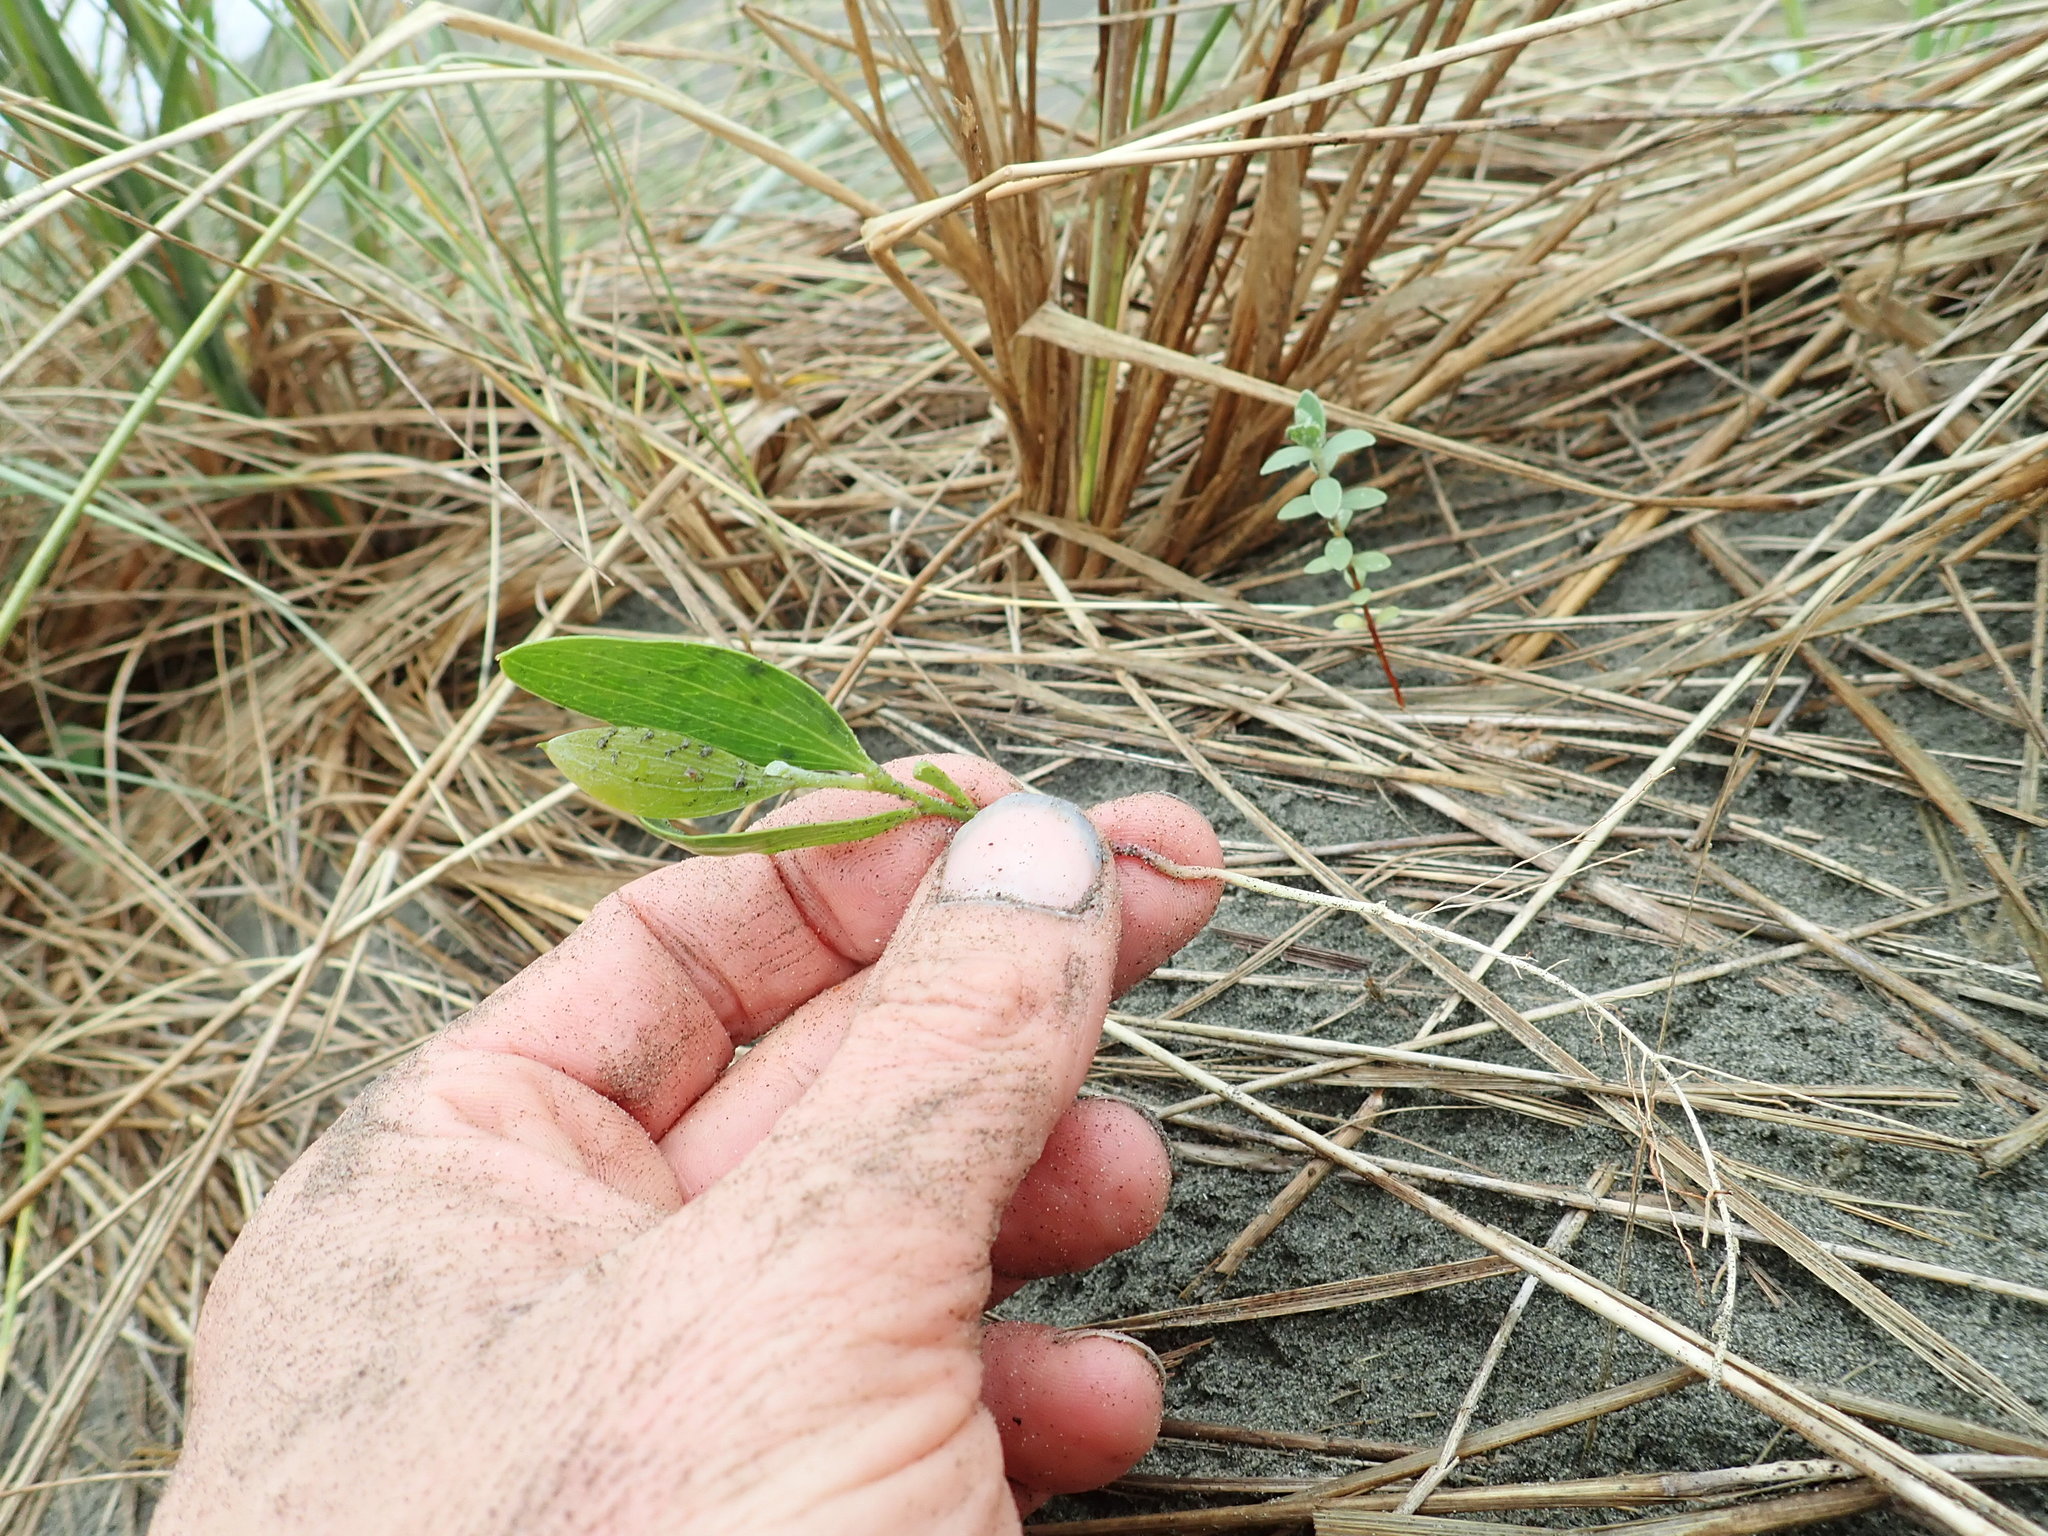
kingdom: Plantae
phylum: Tracheophyta
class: Magnoliopsida
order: Fabales
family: Fabaceae
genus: Acacia
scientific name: Acacia longifolia
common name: Sydney golden wattle
